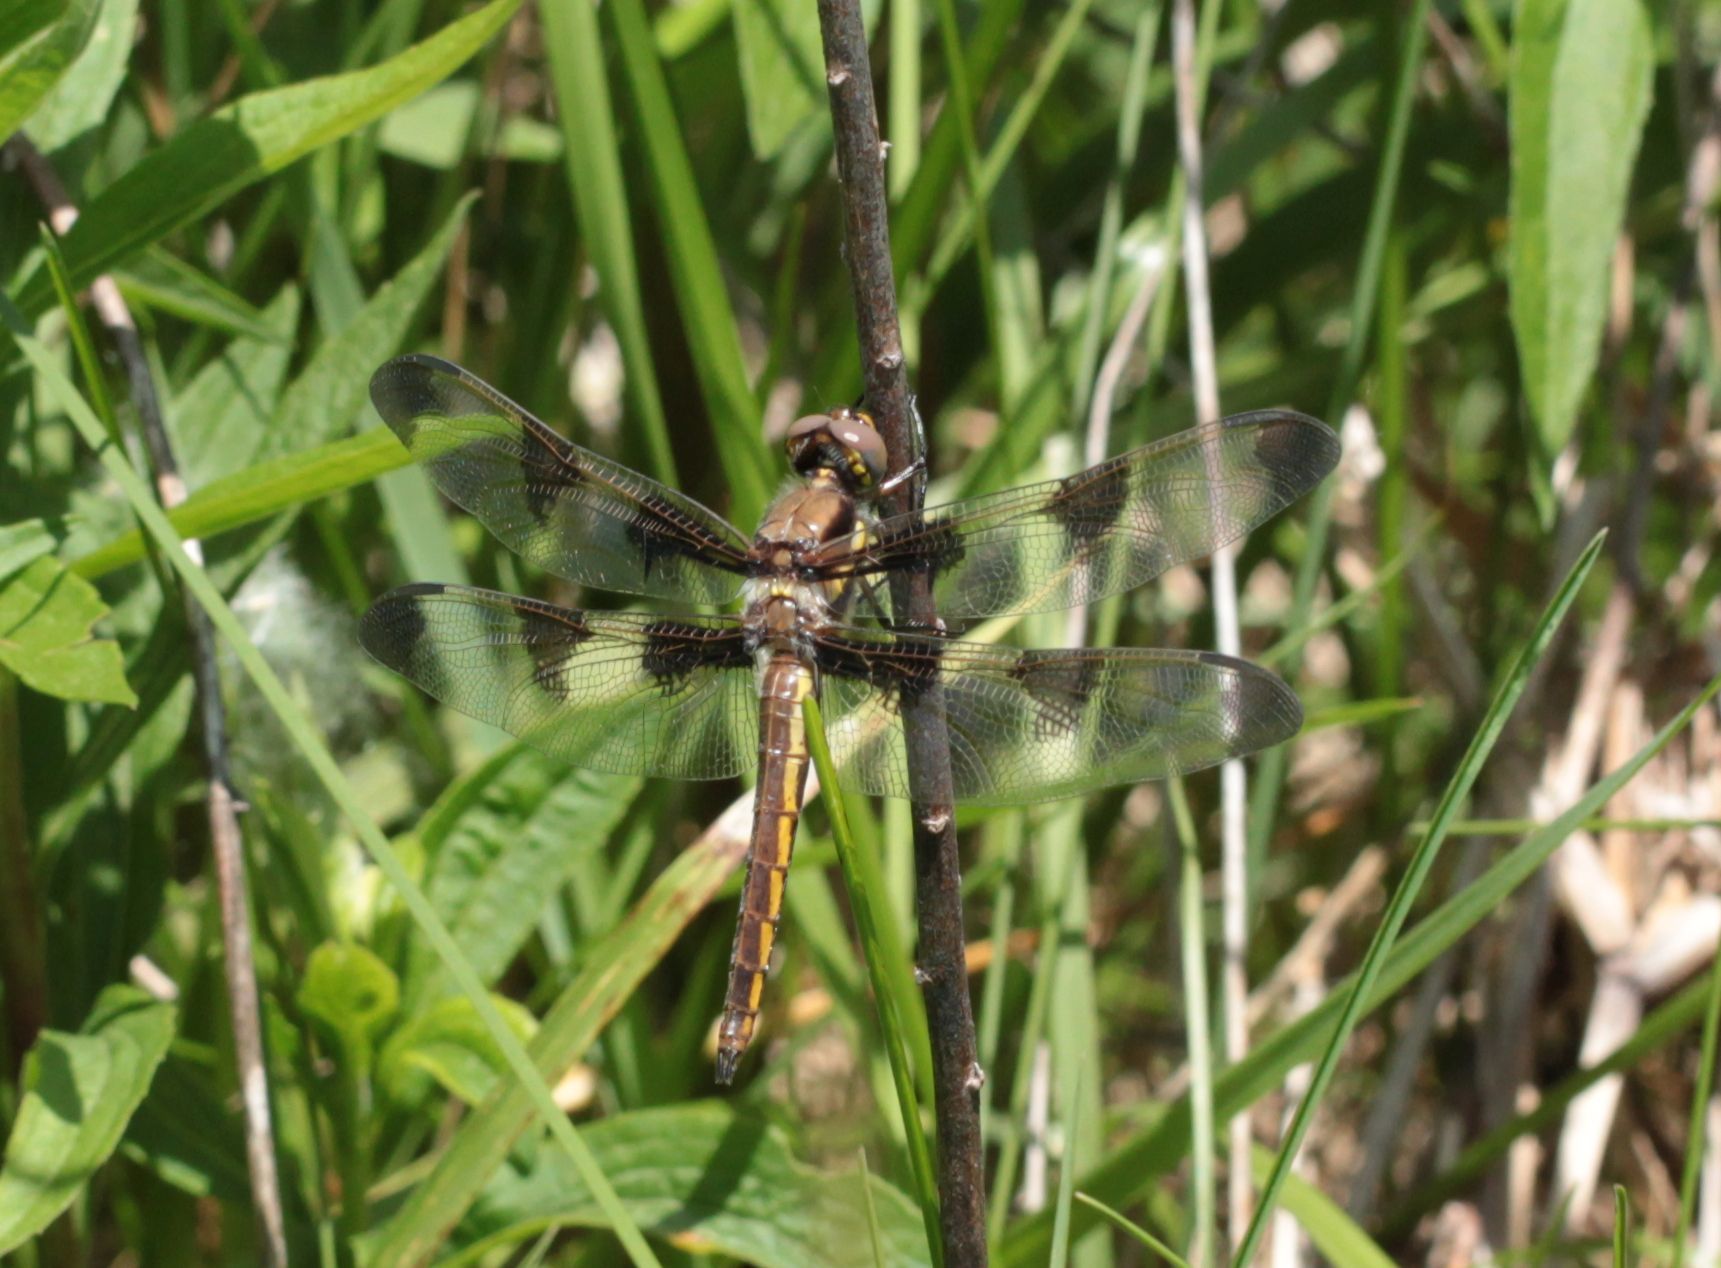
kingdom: Animalia
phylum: Arthropoda
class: Insecta
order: Odonata
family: Libellulidae
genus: Libellula
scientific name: Libellula pulchella
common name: Twelve-spotted skimmer
